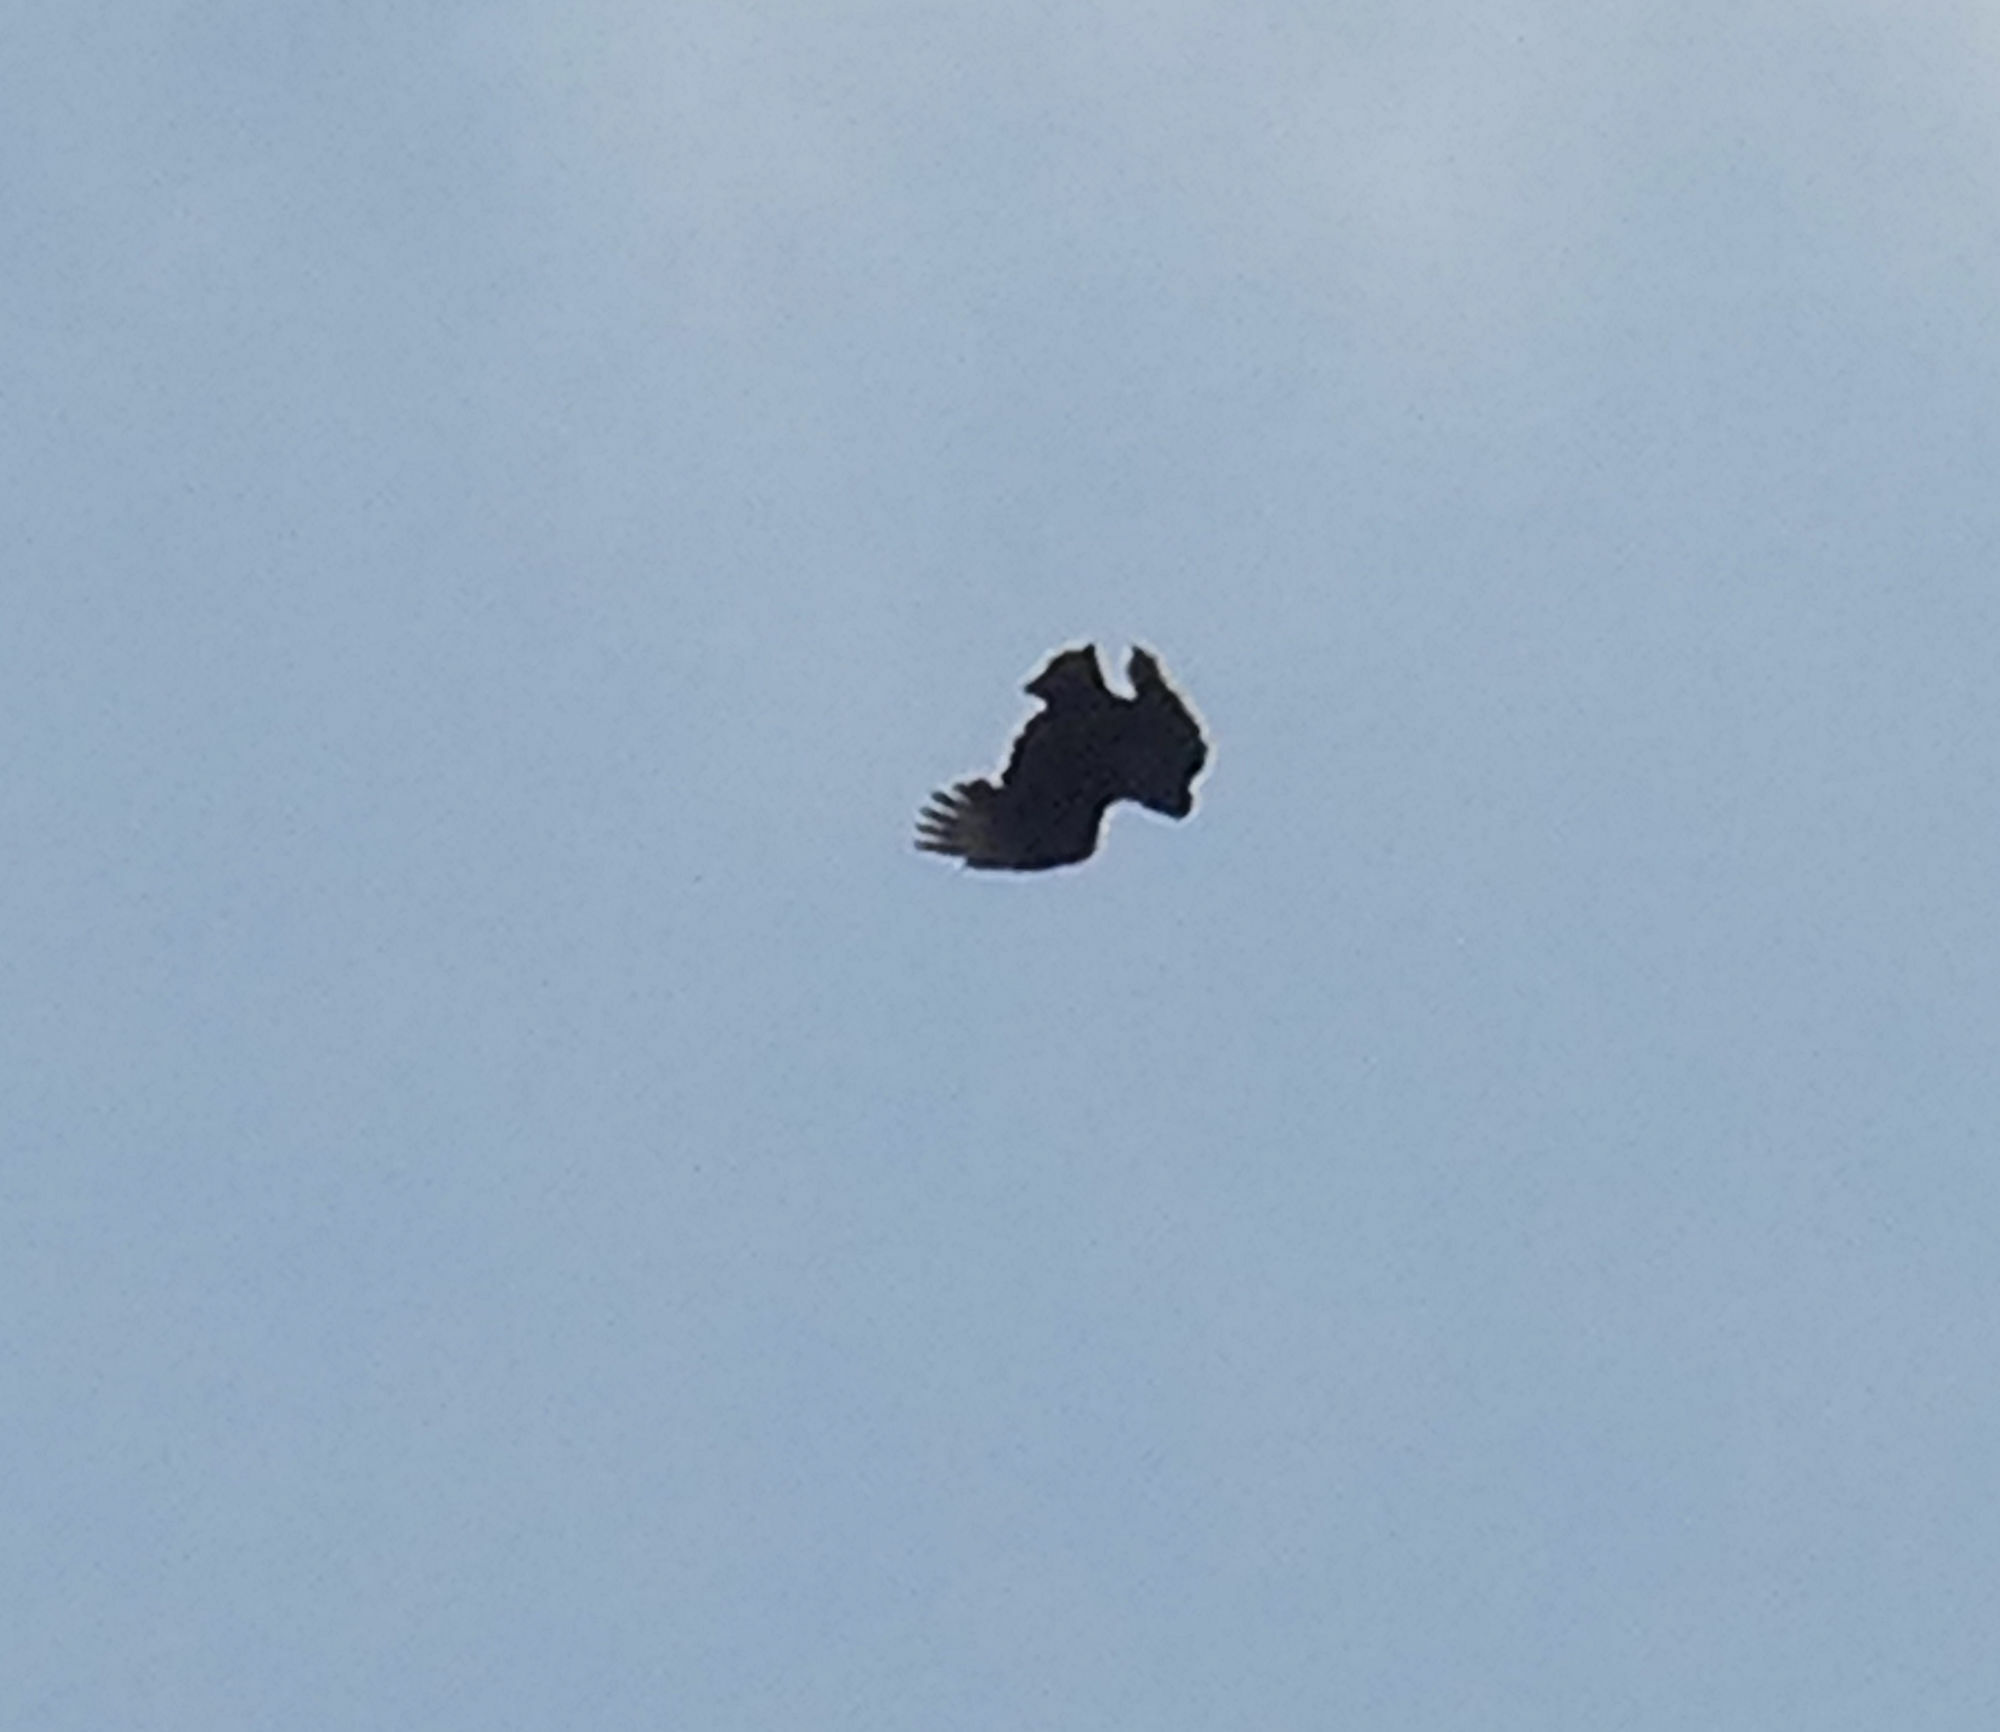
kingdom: Animalia
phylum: Chordata
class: Aves
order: Accipitriformes
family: Cathartidae
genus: Coragyps
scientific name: Coragyps atratus
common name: Black vulture
